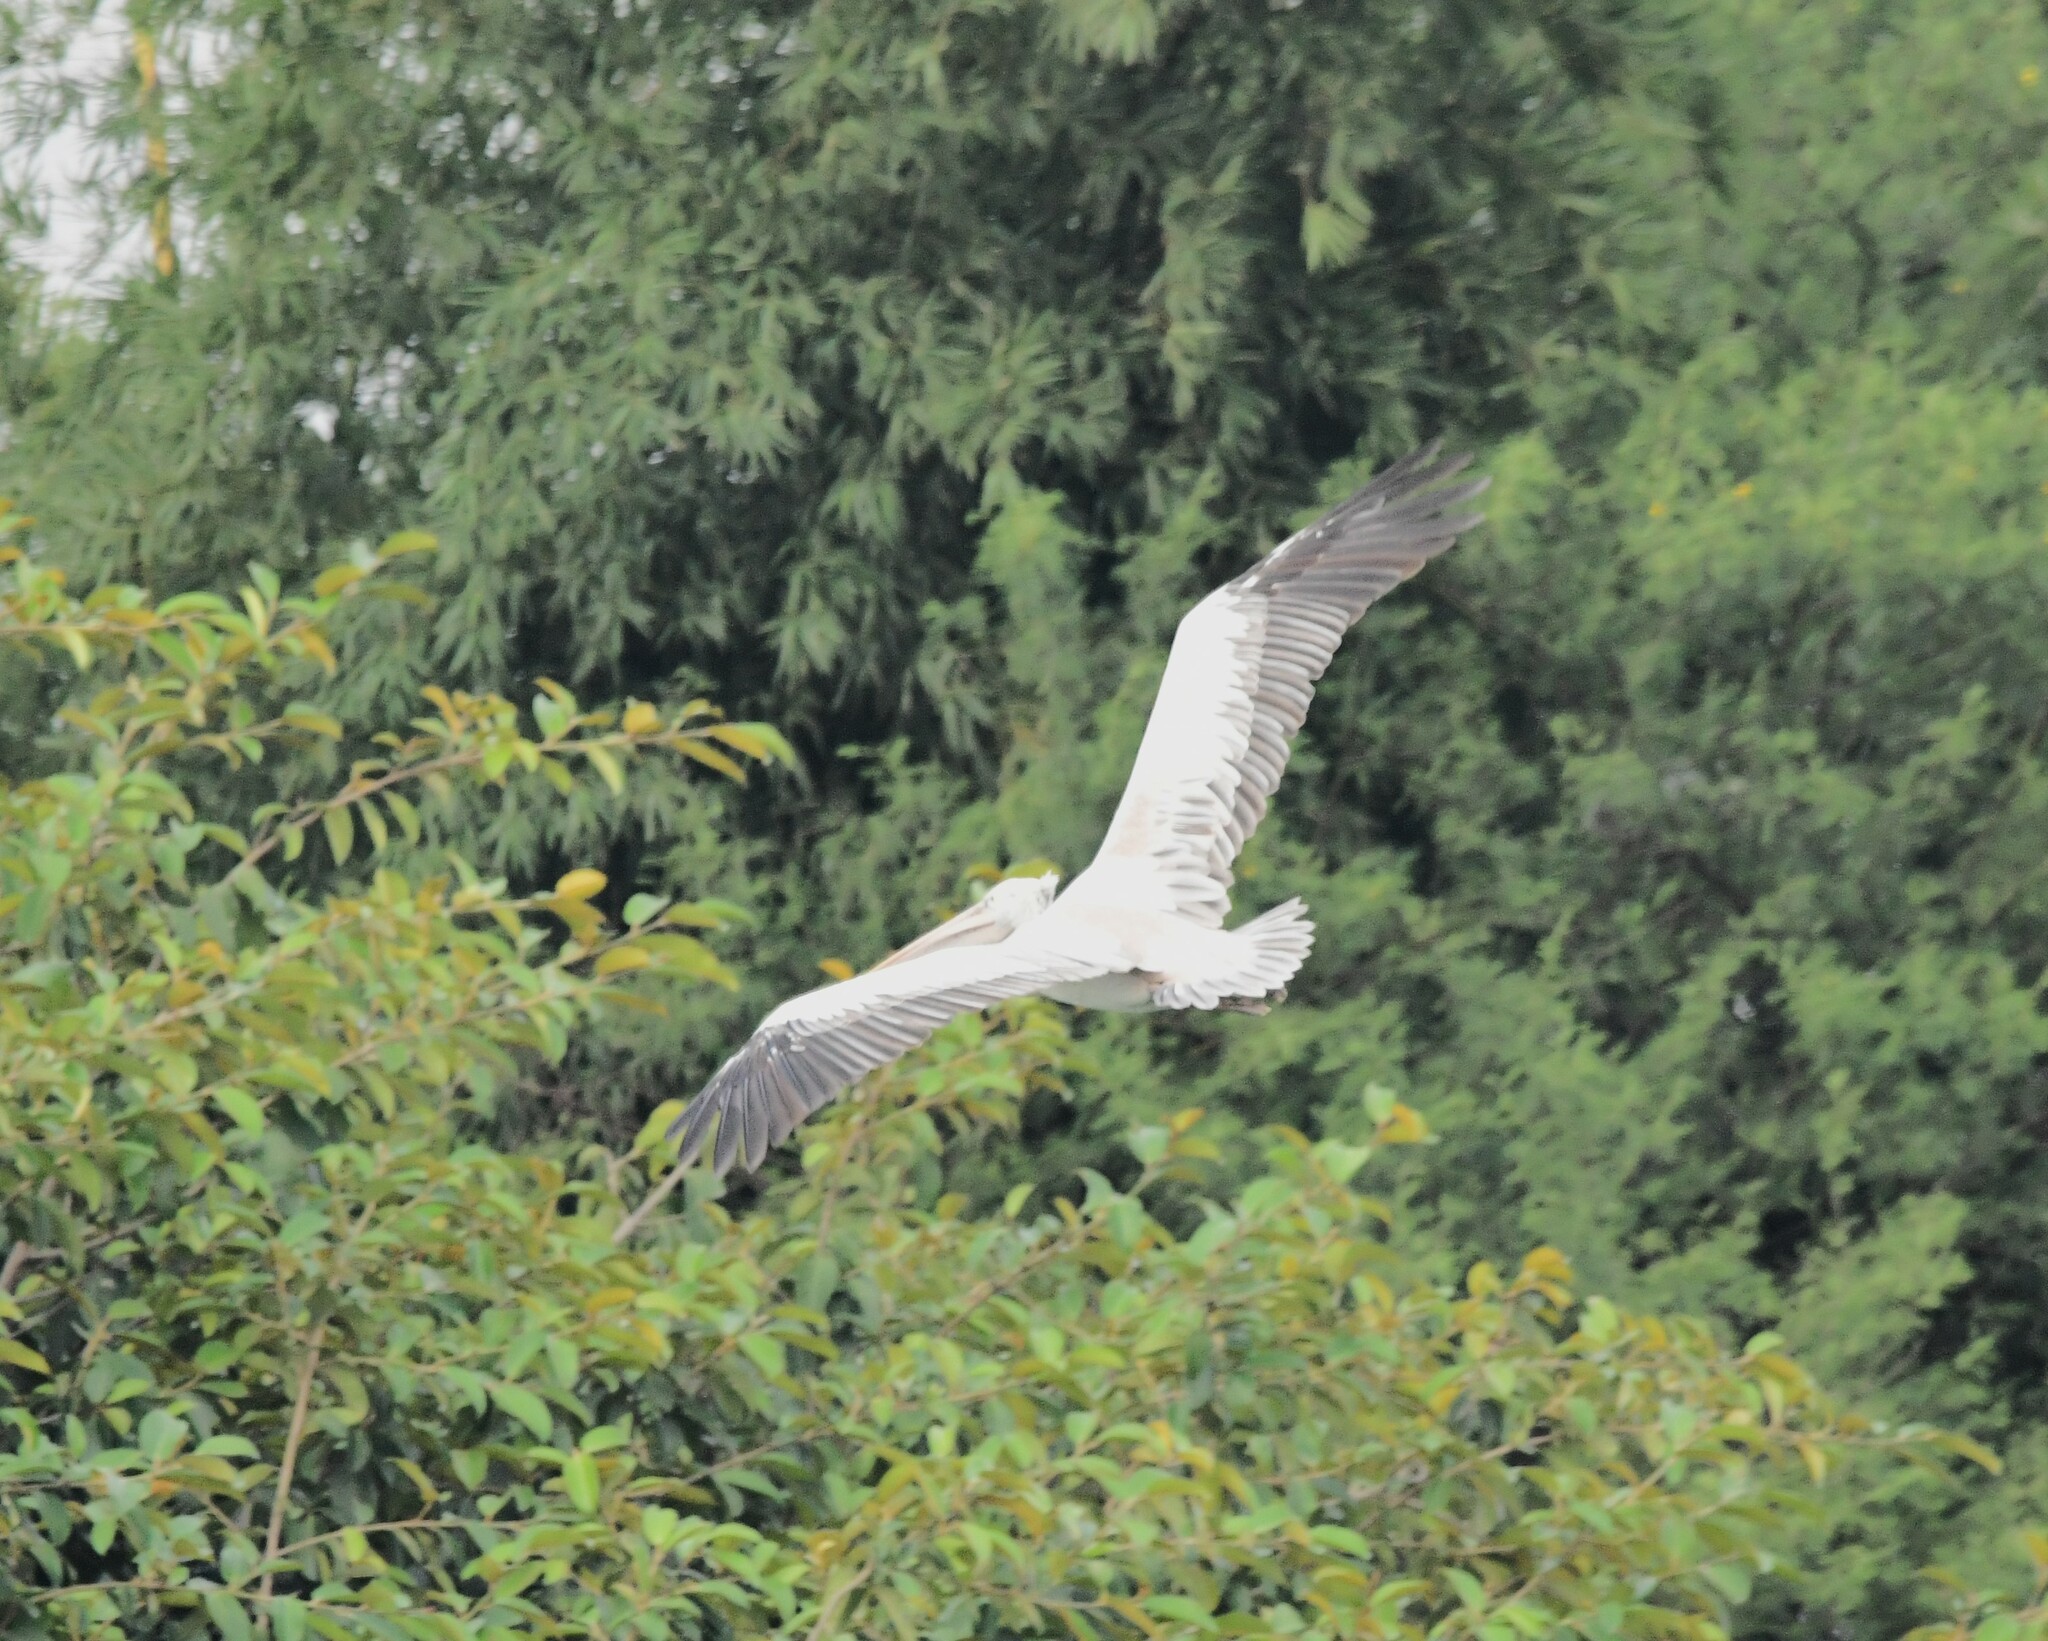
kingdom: Animalia
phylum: Chordata
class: Aves
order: Pelecaniformes
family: Pelecanidae
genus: Pelecanus
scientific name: Pelecanus philippensis
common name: Spot-billed pelican
